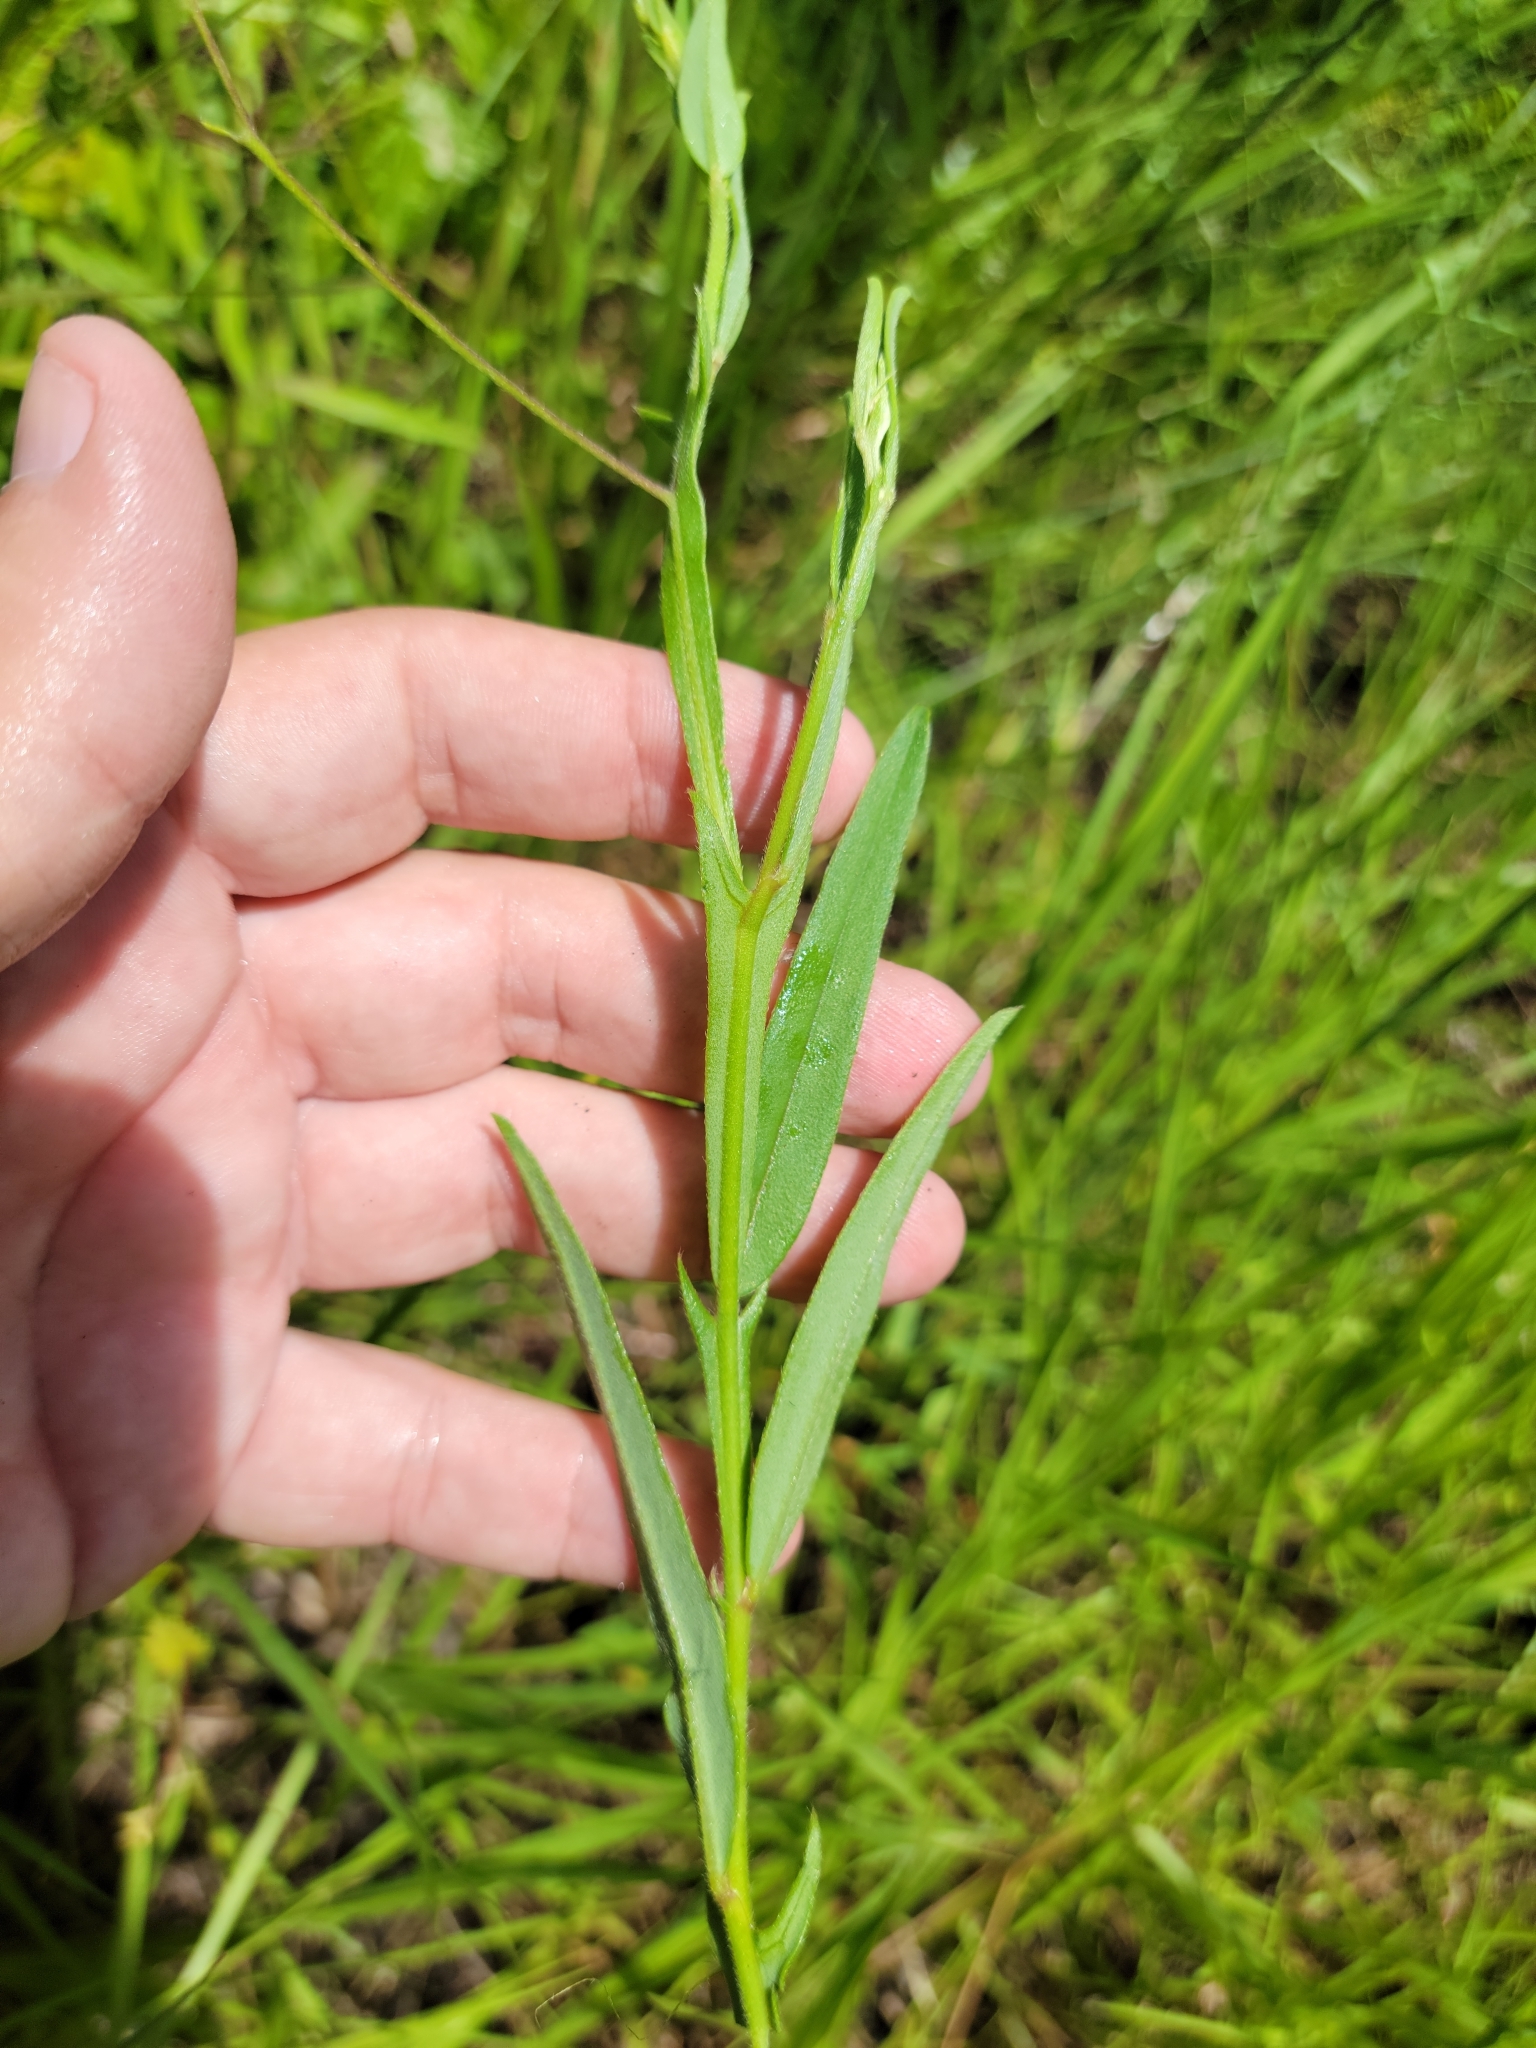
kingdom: Plantae
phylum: Tracheophyta
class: Magnoliopsida
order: Fabales
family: Fabaceae
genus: Crotalaria
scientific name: Crotalaria rotundifolia
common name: Prostrate rattlebox
